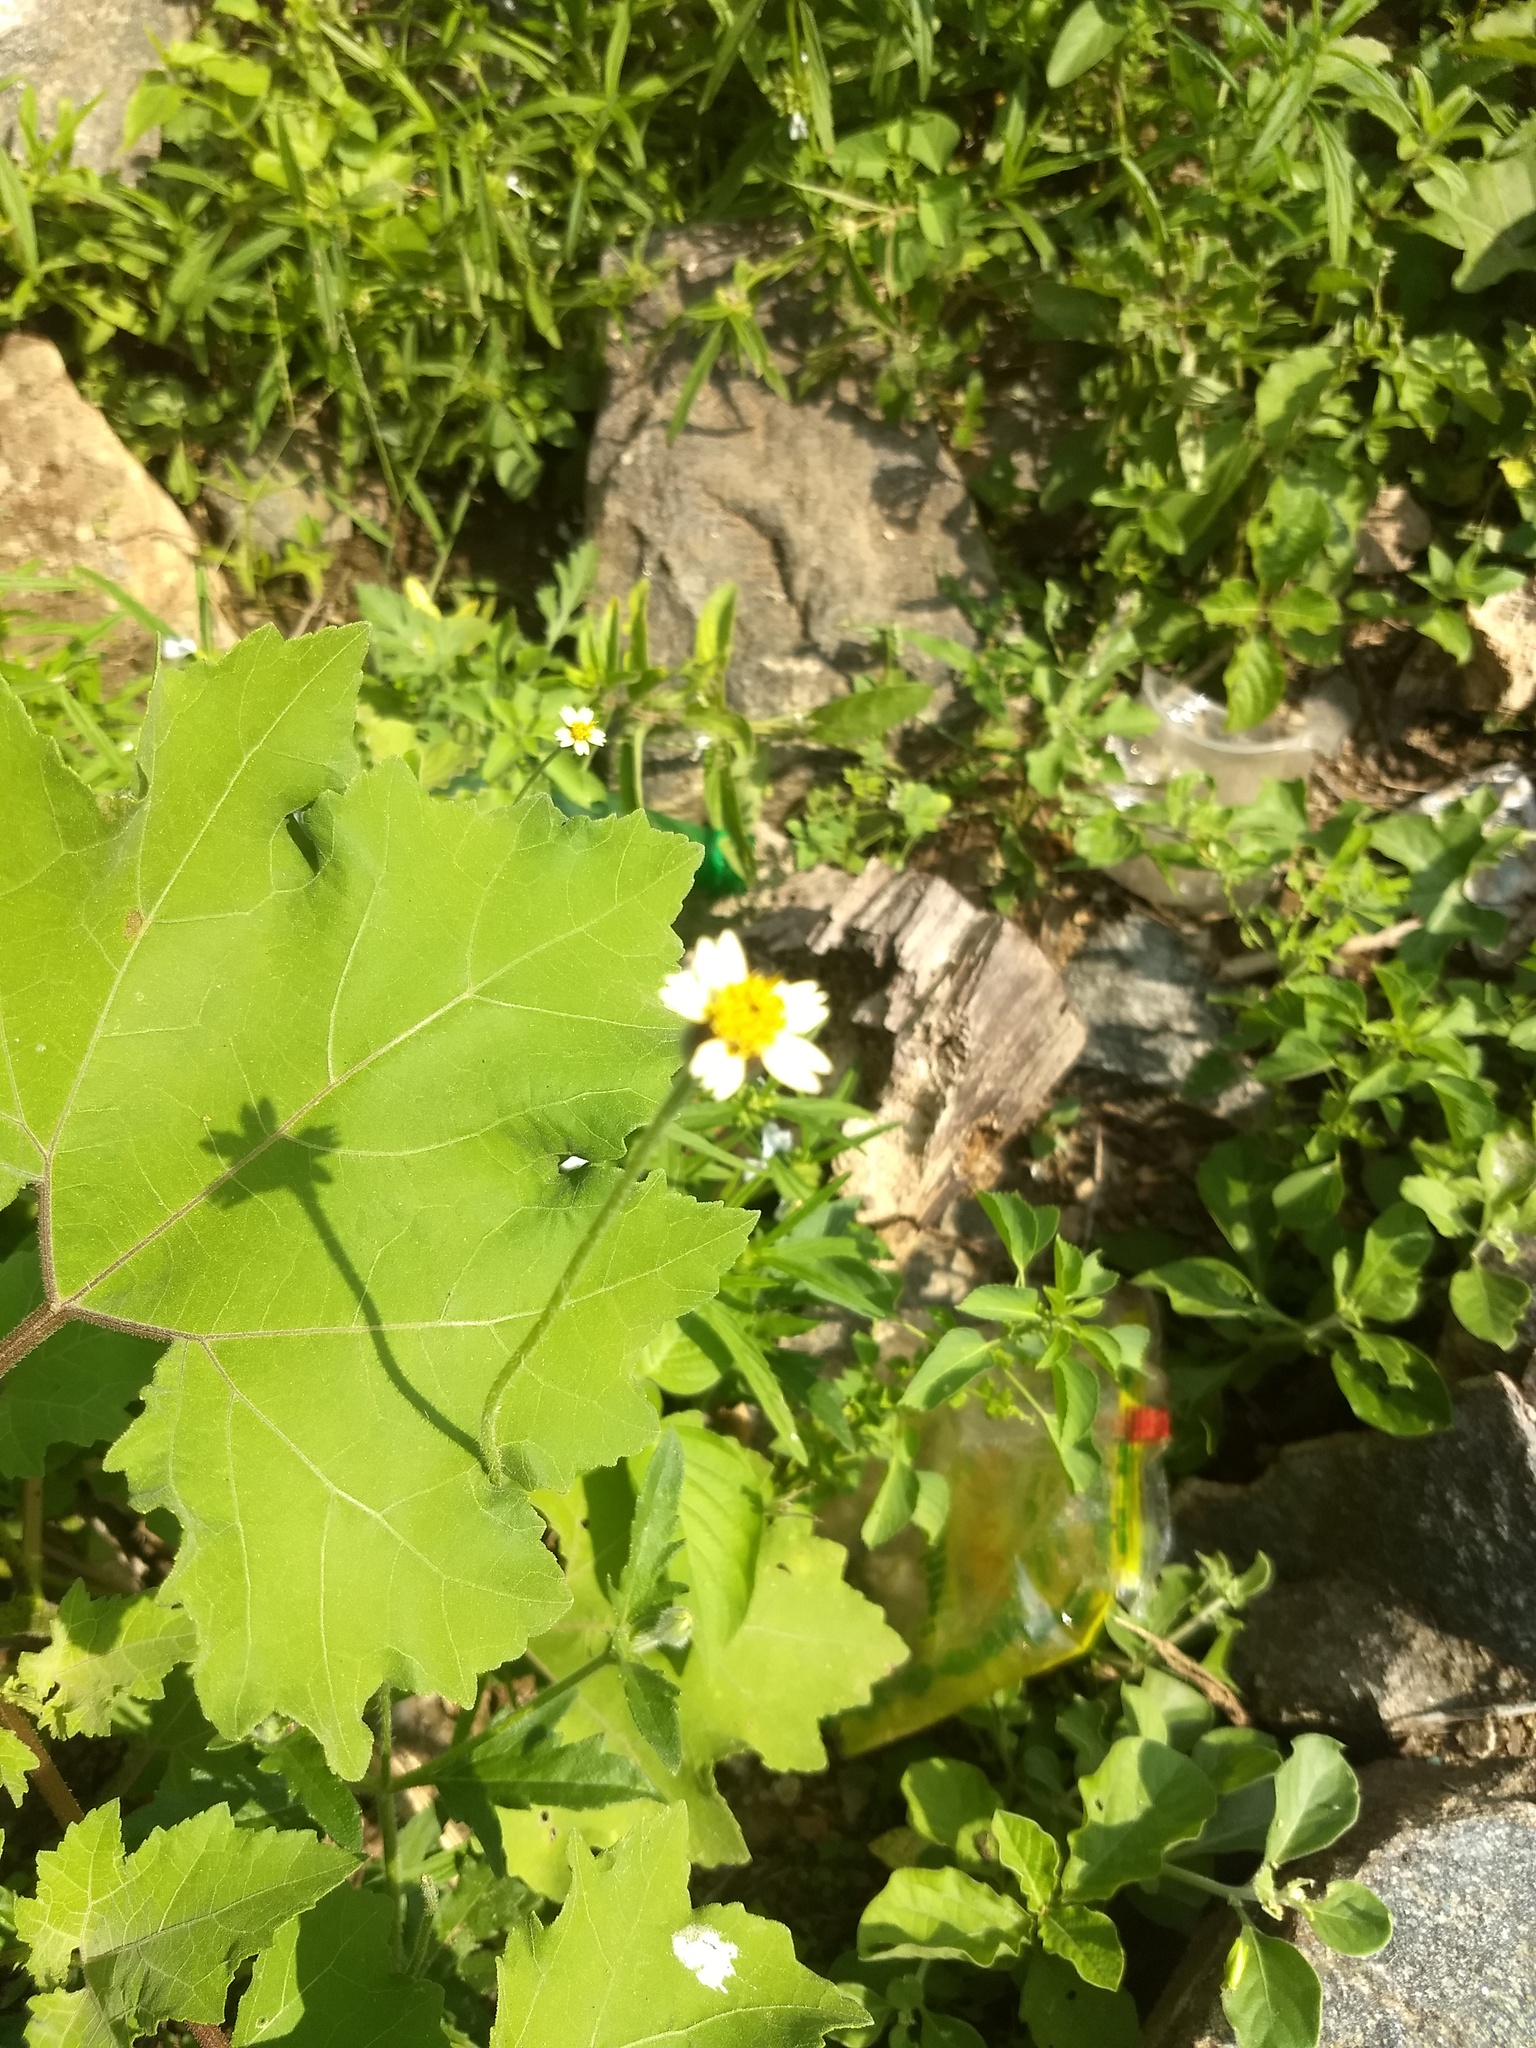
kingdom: Plantae
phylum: Tracheophyta
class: Magnoliopsida
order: Asterales
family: Asteraceae
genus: Tridax
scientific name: Tridax procumbens
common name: Coatbuttons
